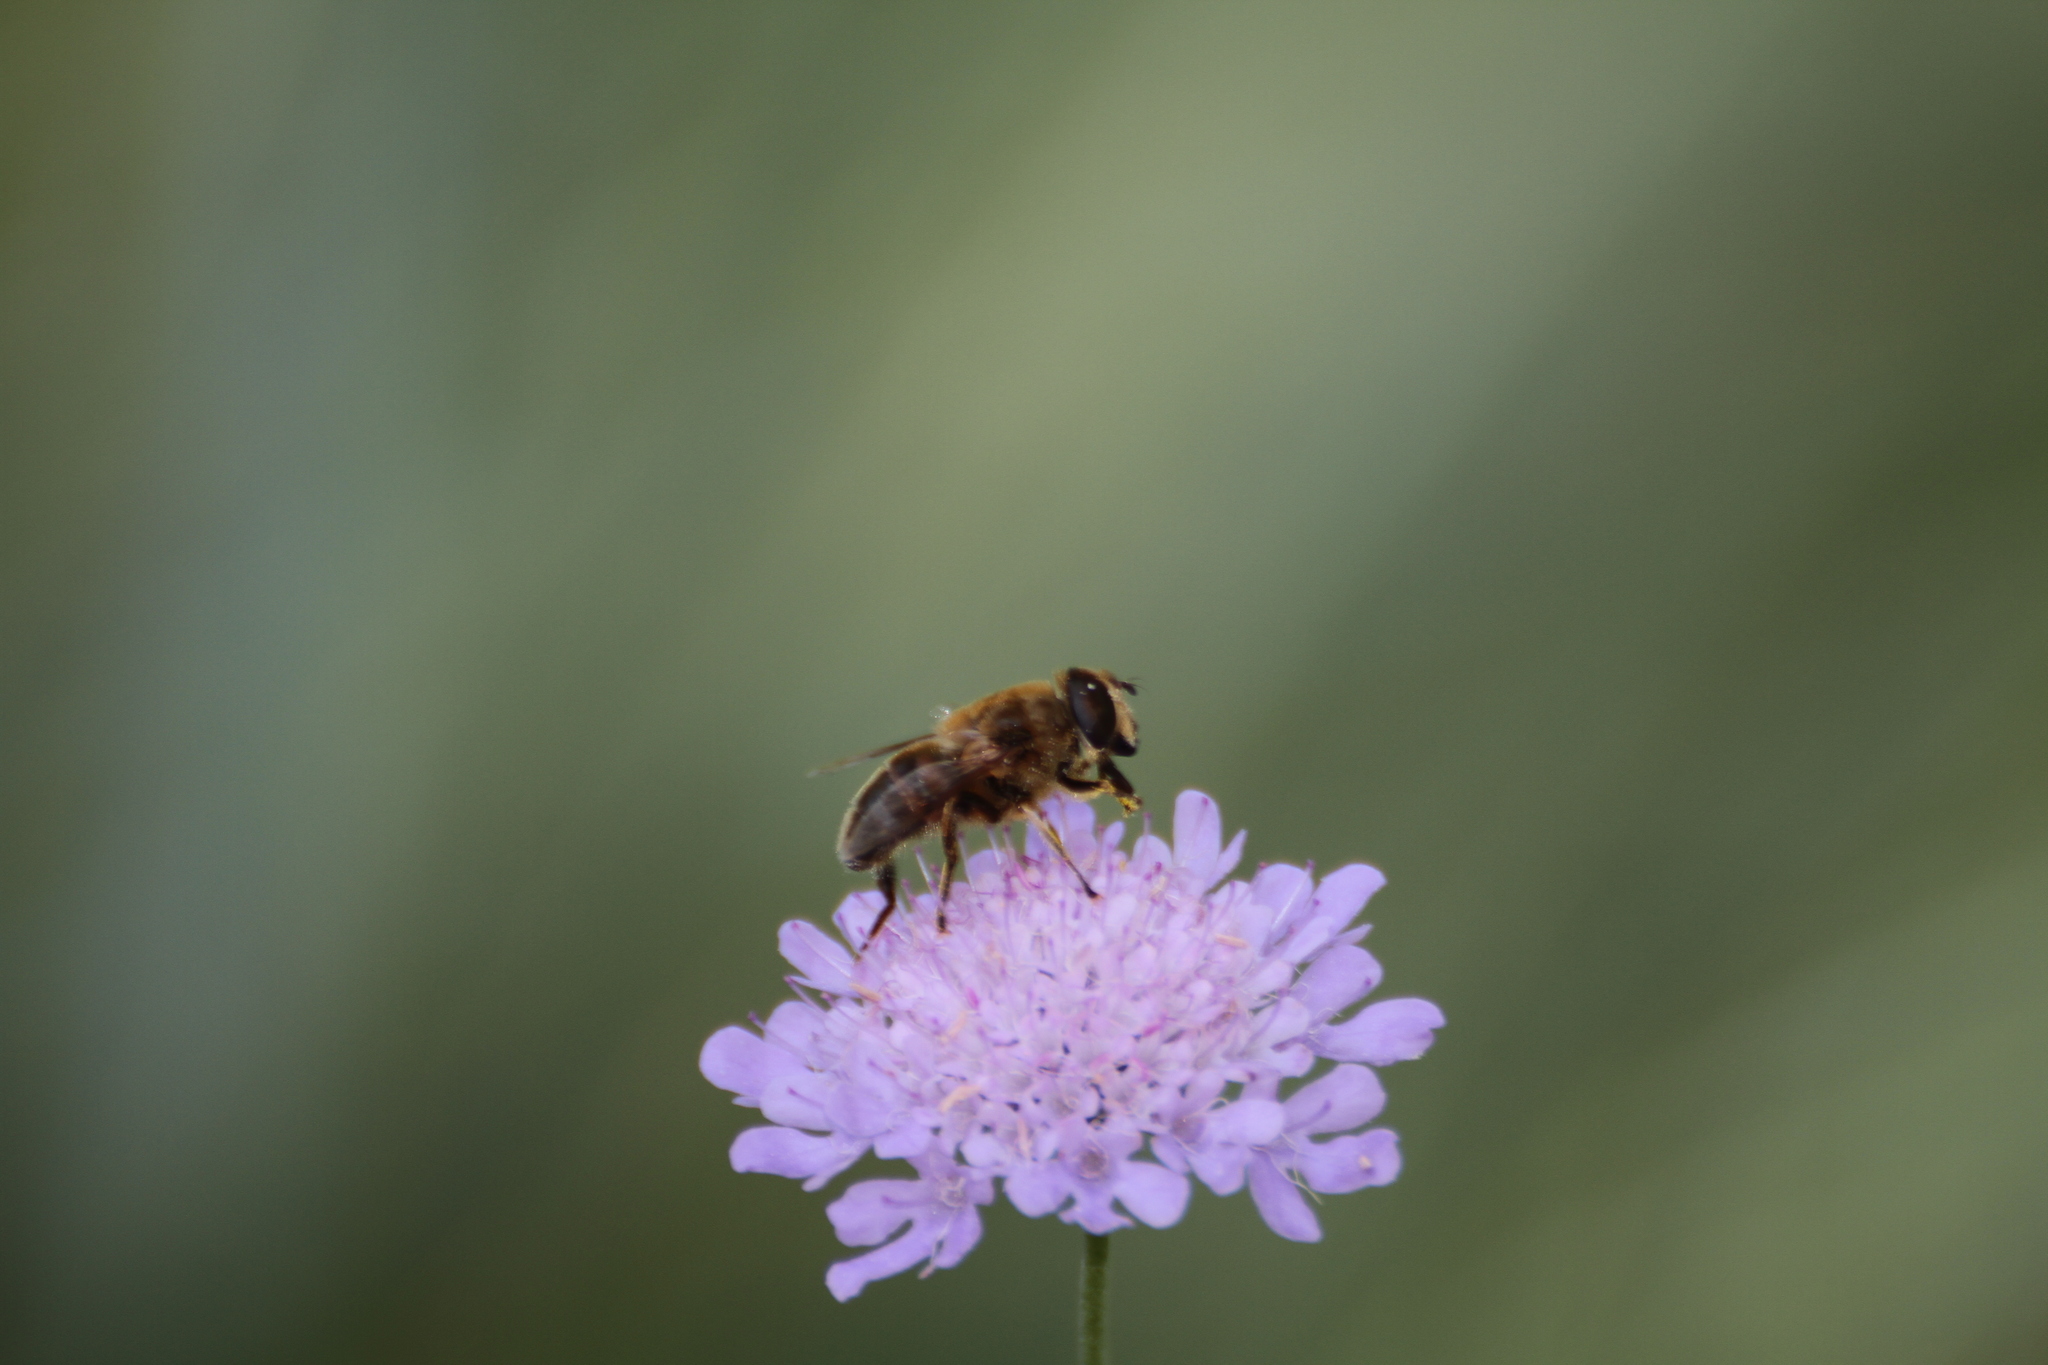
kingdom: Animalia
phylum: Arthropoda
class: Insecta
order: Diptera
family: Syrphidae
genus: Eristalis
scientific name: Eristalis tenax
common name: Drone fly
